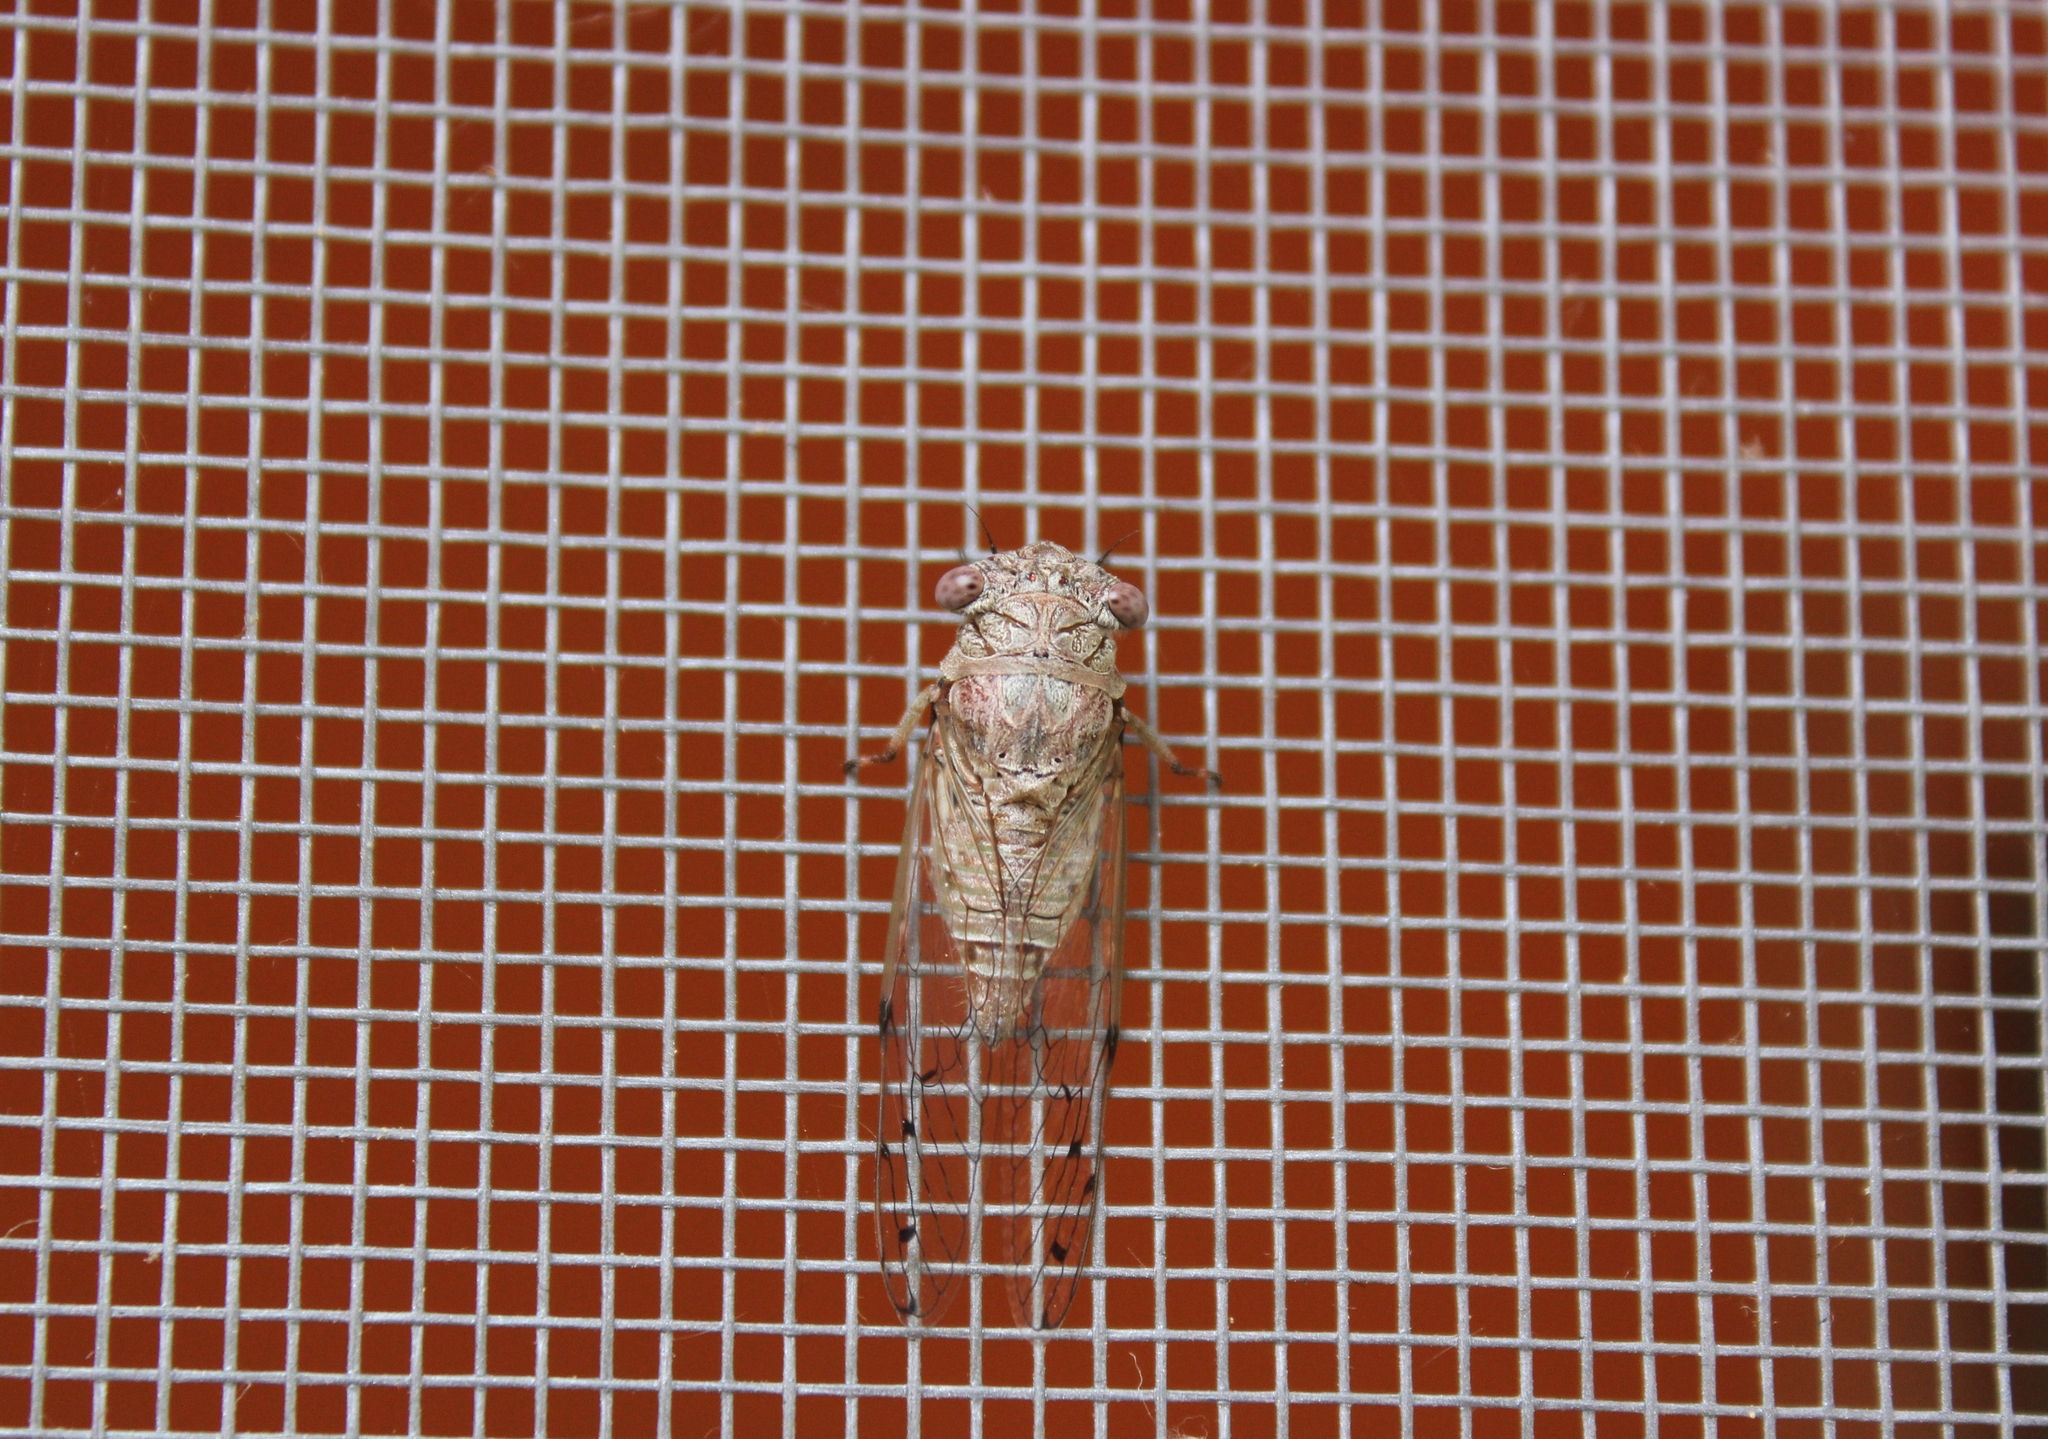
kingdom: Animalia
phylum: Arthropoda
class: Insecta
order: Hemiptera
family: Cicadidae
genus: Pacarina
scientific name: Pacarina schumanni
